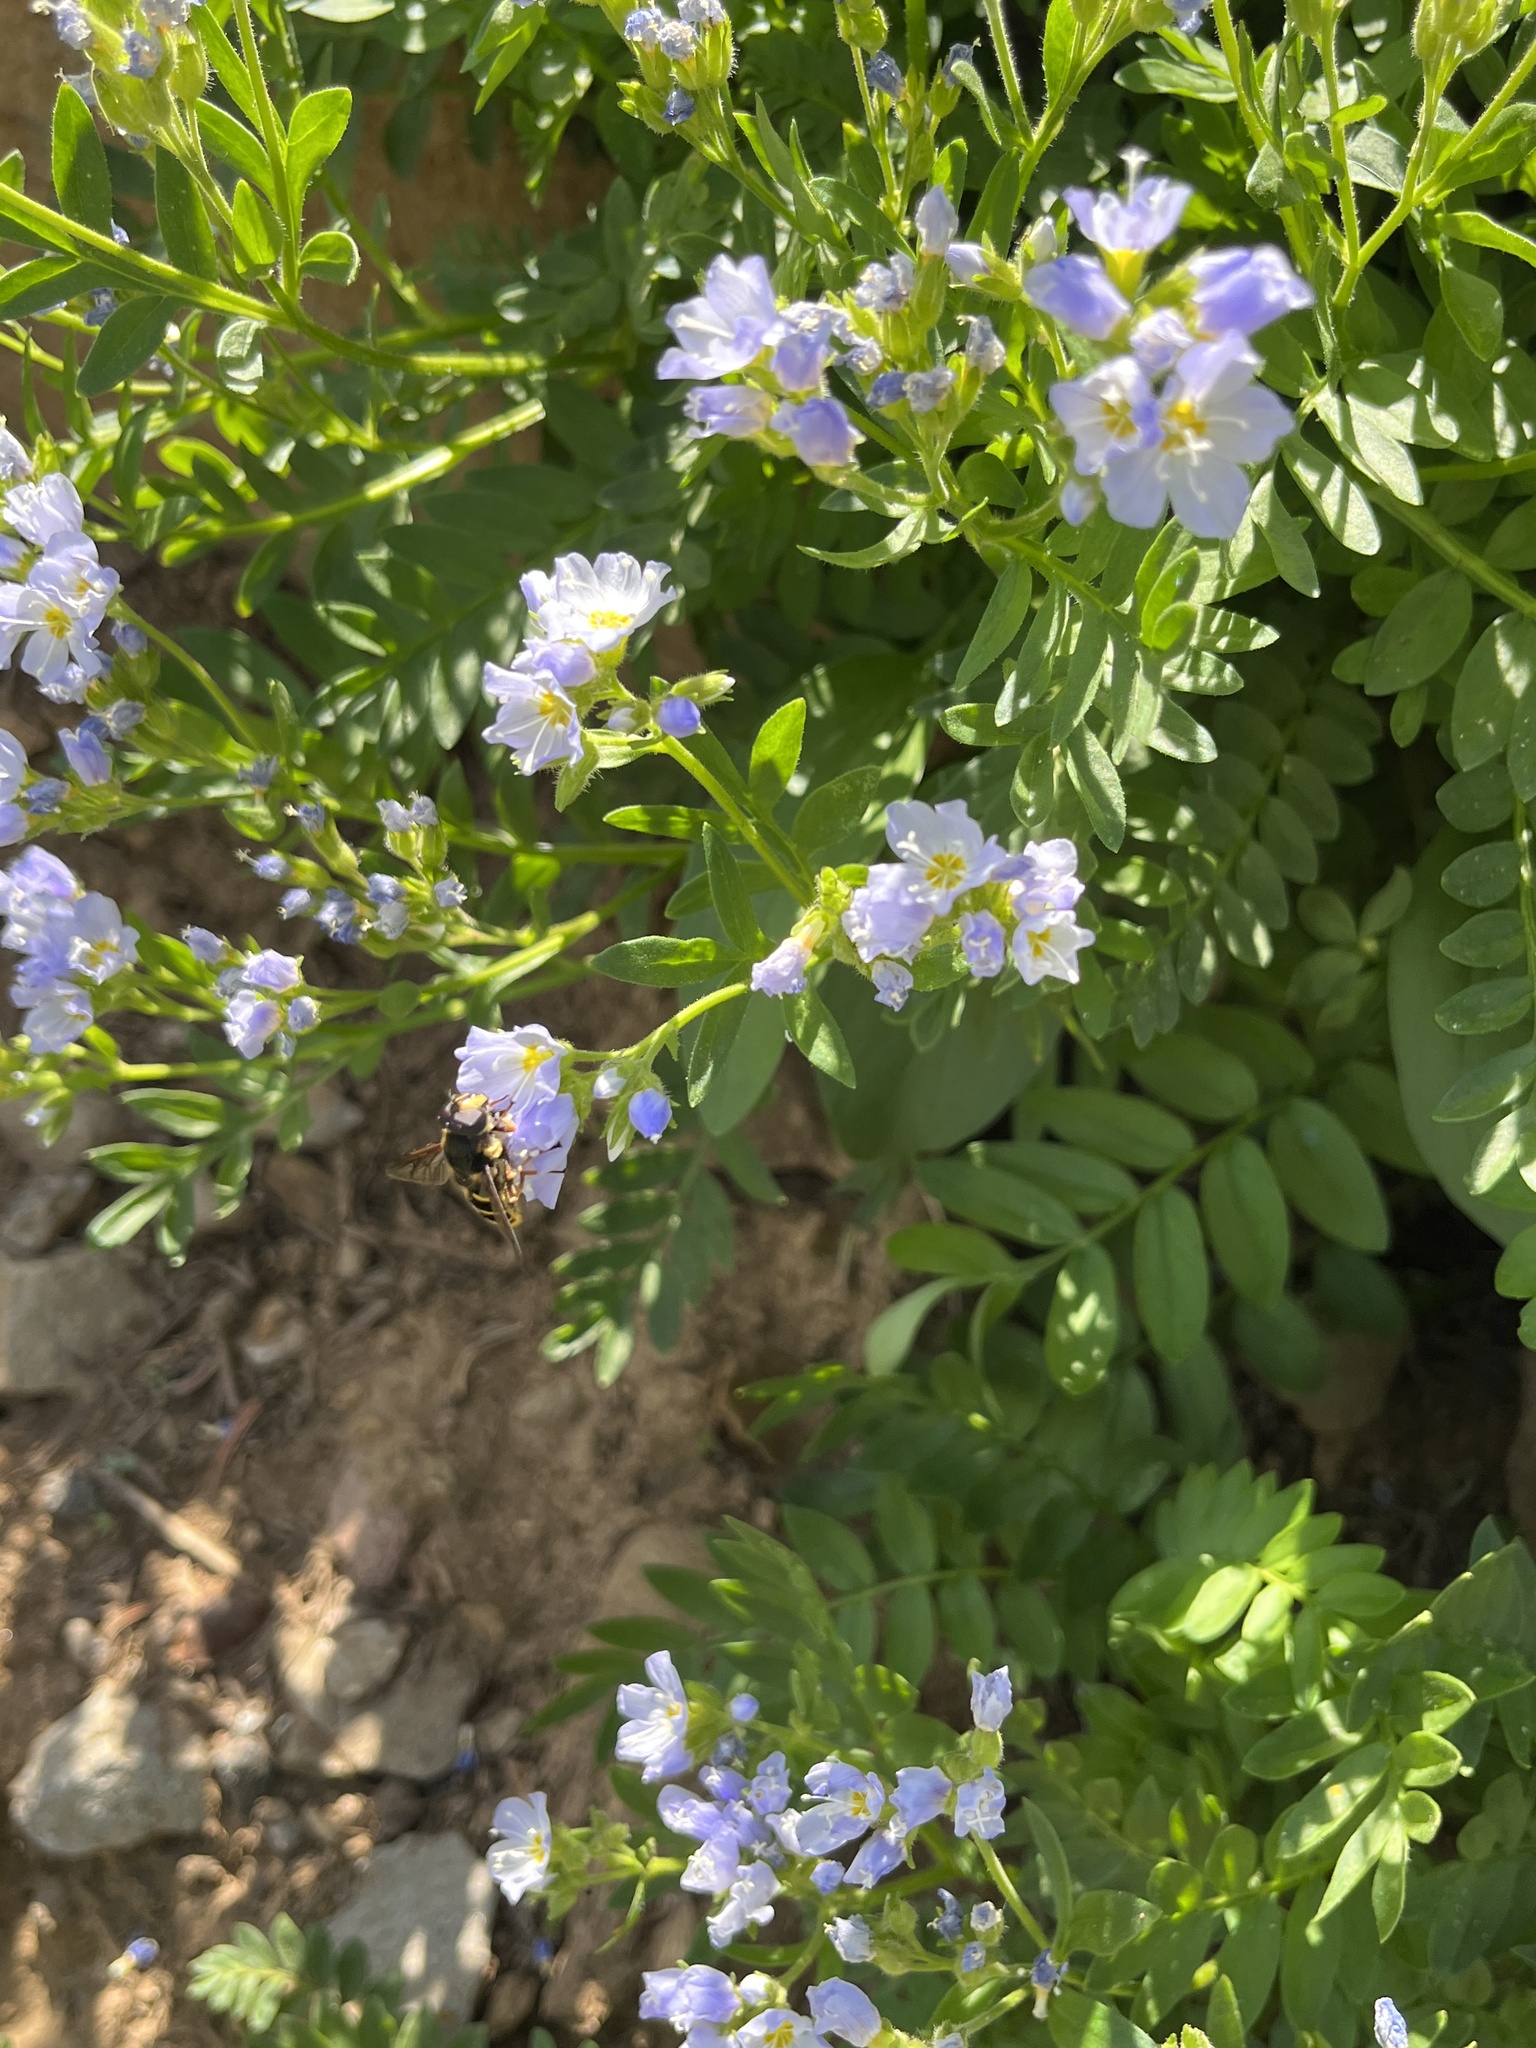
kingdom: Plantae
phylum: Tracheophyta
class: Magnoliopsida
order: Ericales
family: Polemoniaceae
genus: Polemonium
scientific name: Polemonium californicum
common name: California jacob's ladder
